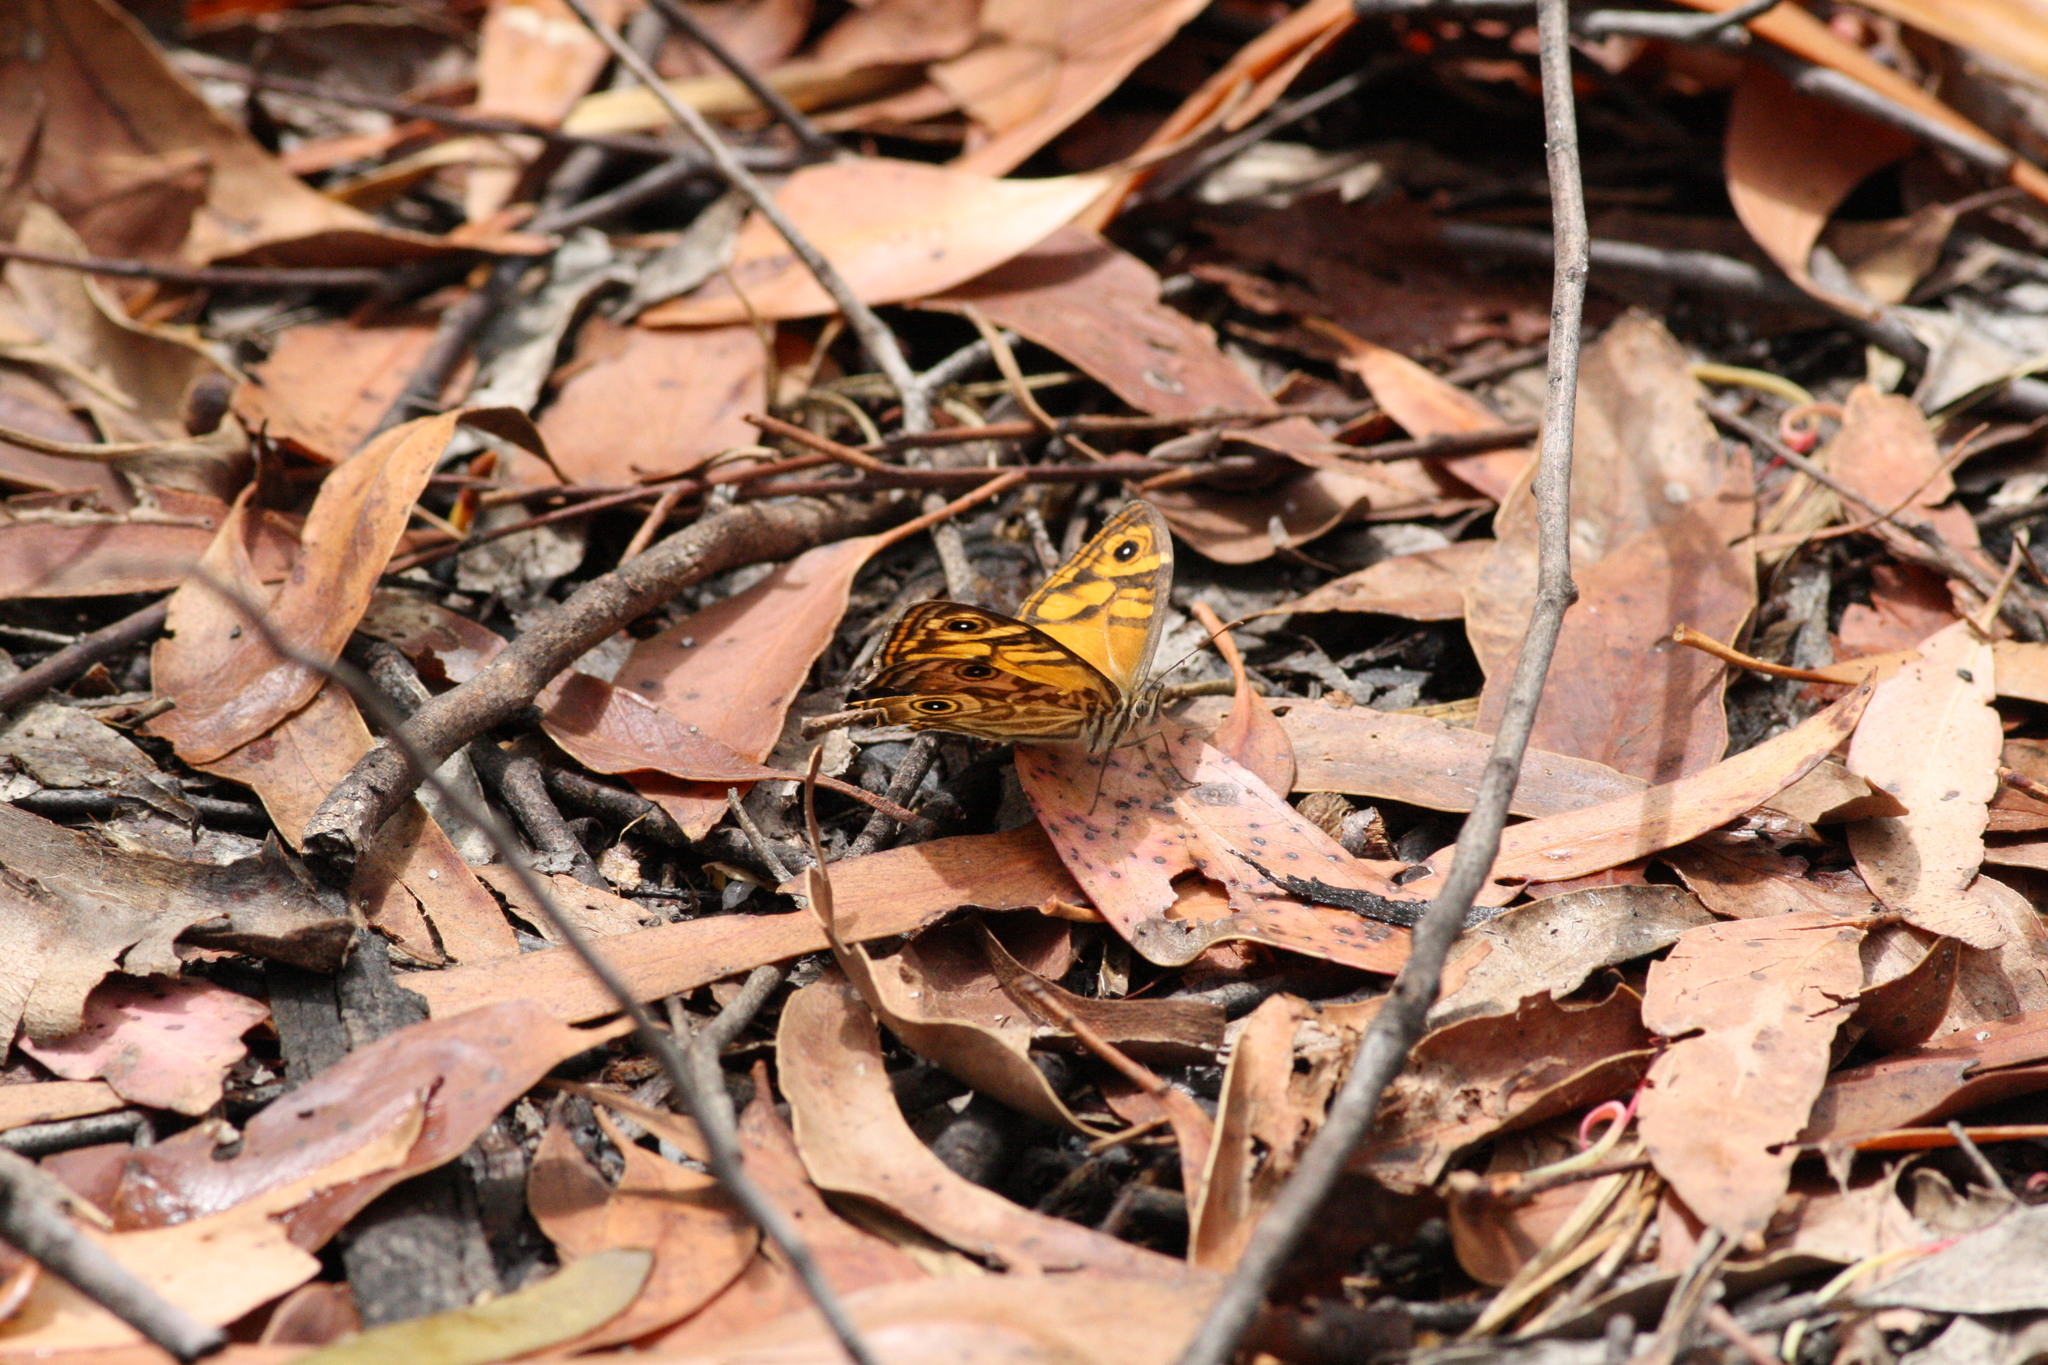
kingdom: Animalia
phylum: Arthropoda
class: Insecta
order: Lepidoptera
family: Nymphalidae
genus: Geitoneura
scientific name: Geitoneura acantha
